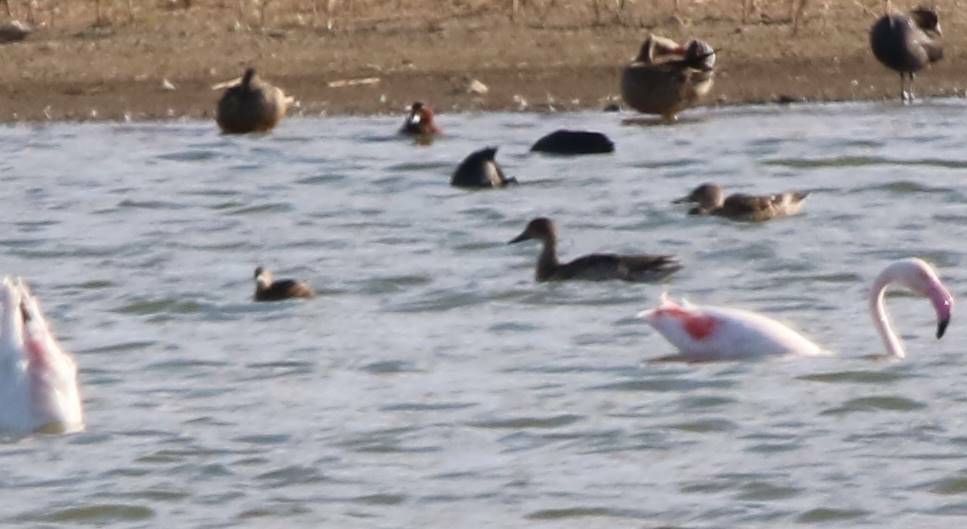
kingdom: Animalia
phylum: Chordata
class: Aves
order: Anseriformes
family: Anatidae
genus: Anas
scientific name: Anas acuta
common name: Northern pintail
